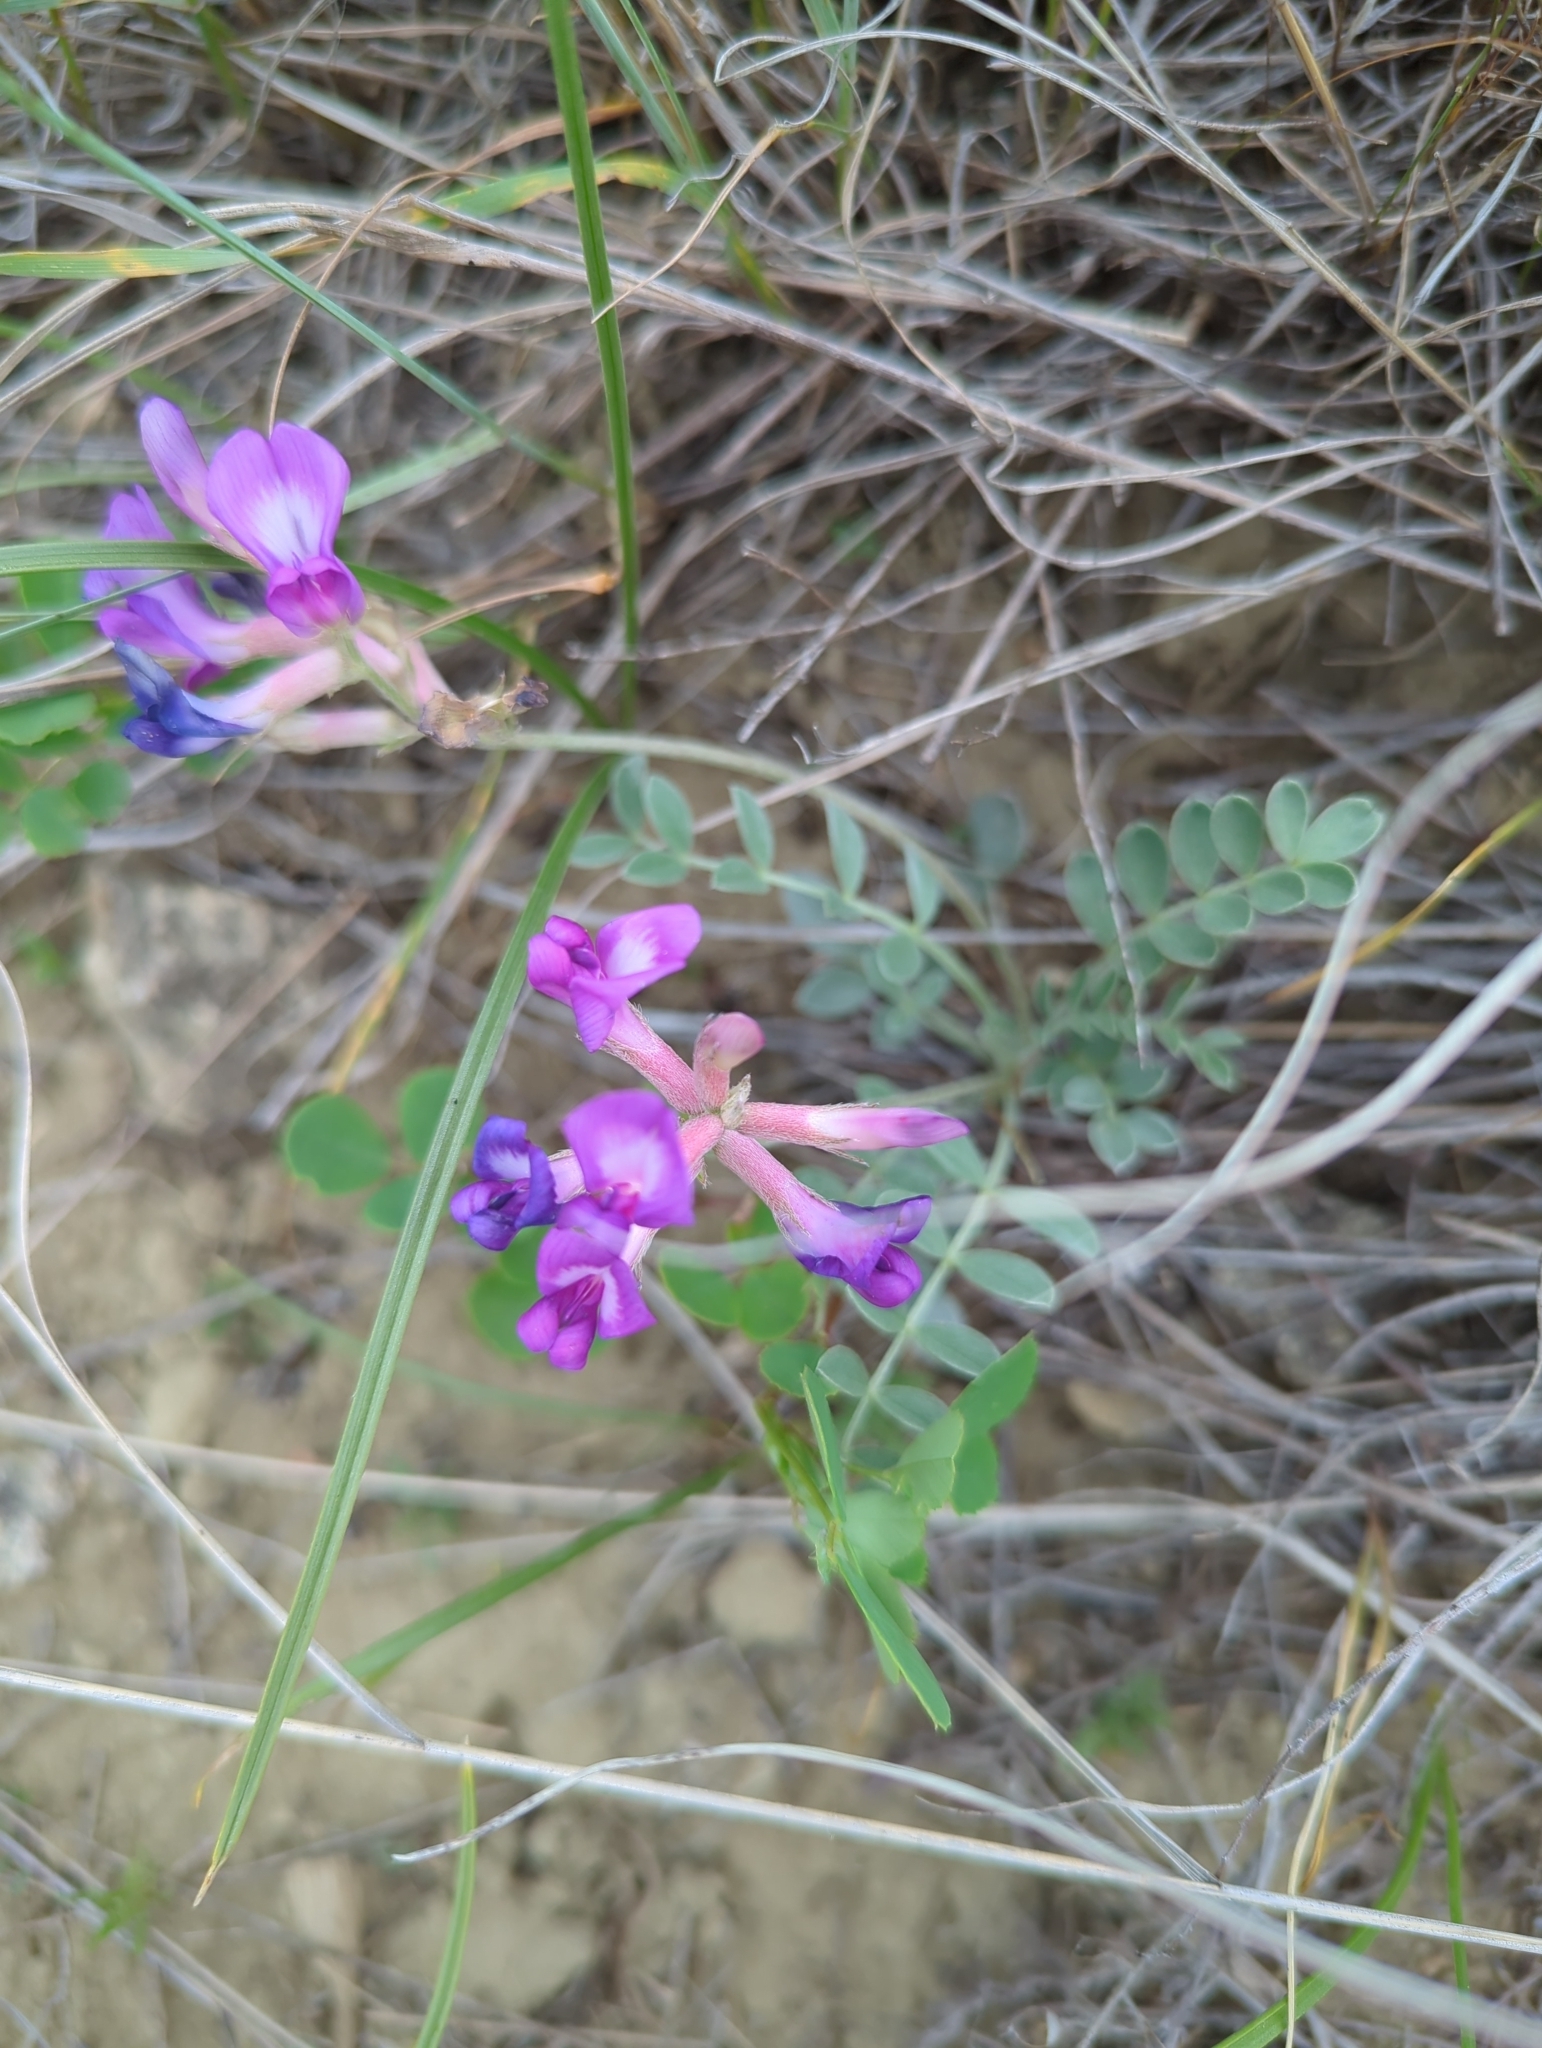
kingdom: Plantae
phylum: Tracheophyta
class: Magnoliopsida
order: Fabales
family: Fabaceae
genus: Astragalus
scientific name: Astragalus missouriensis
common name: Missouri milk-vetch
